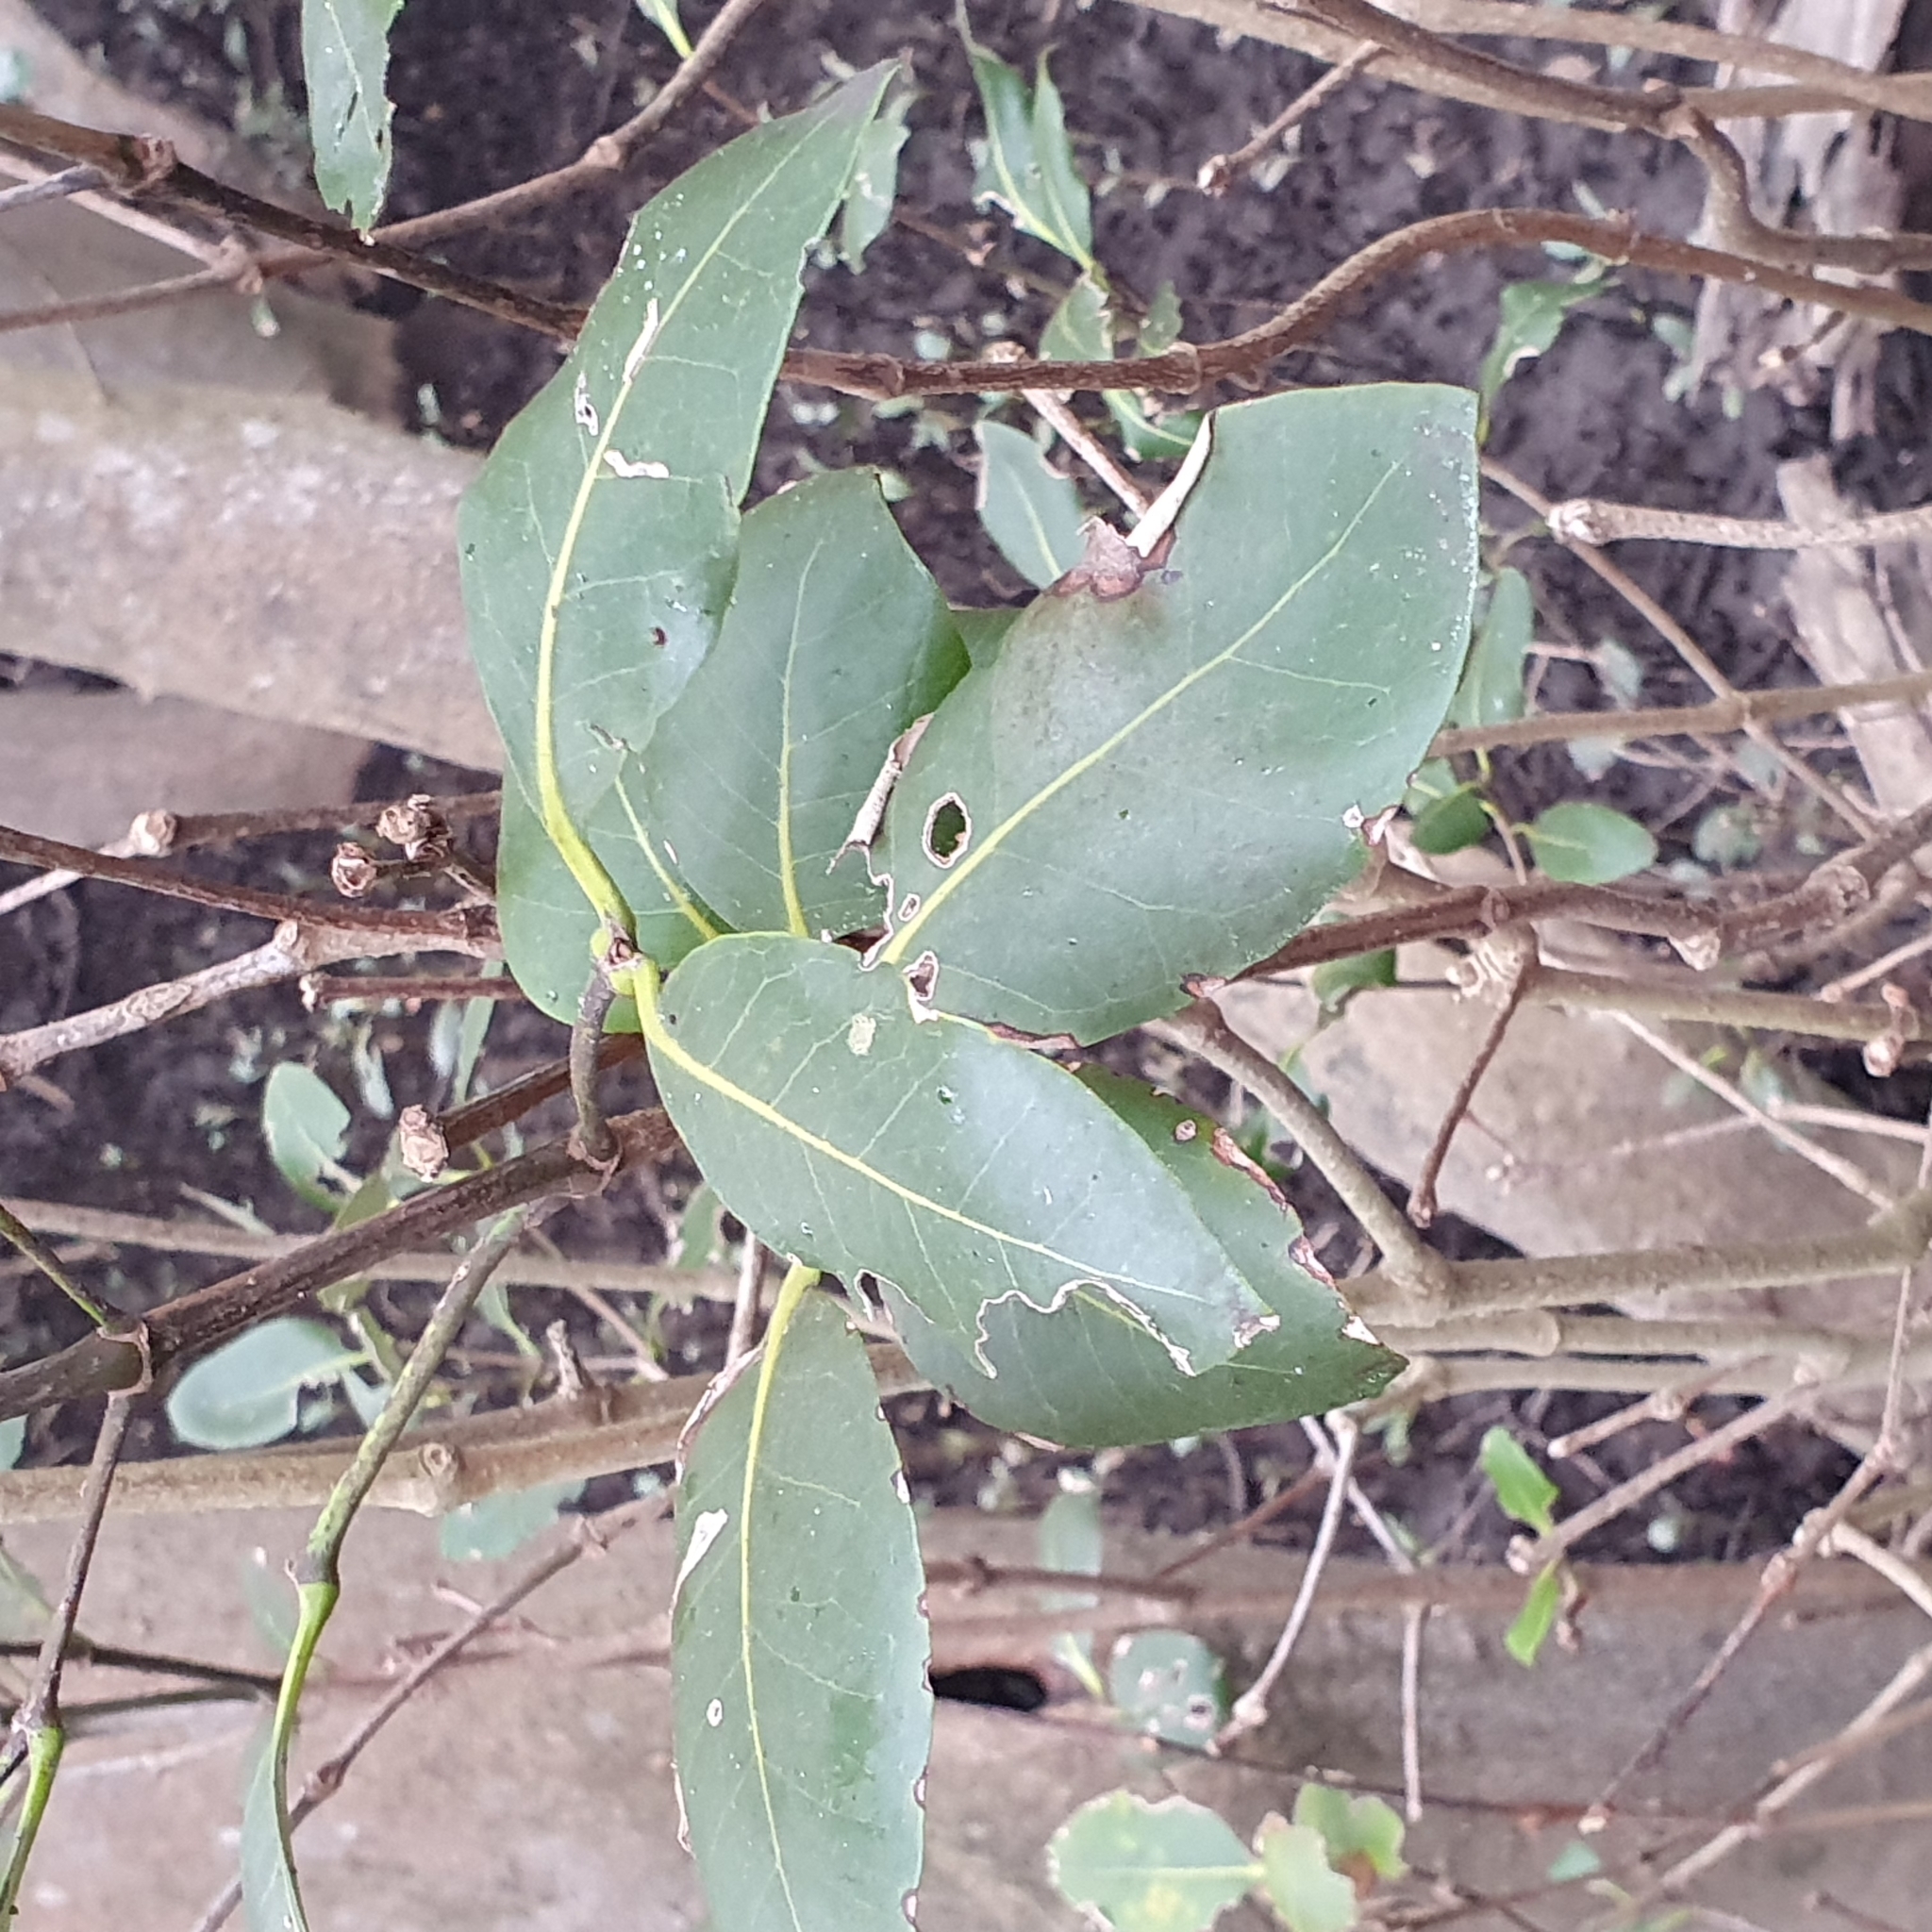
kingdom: Plantae
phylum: Tracheophyta
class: Magnoliopsida
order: Lamiales
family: Acanthaceae
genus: Avicennia
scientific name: Avicennia marina
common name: Gray mangrove
